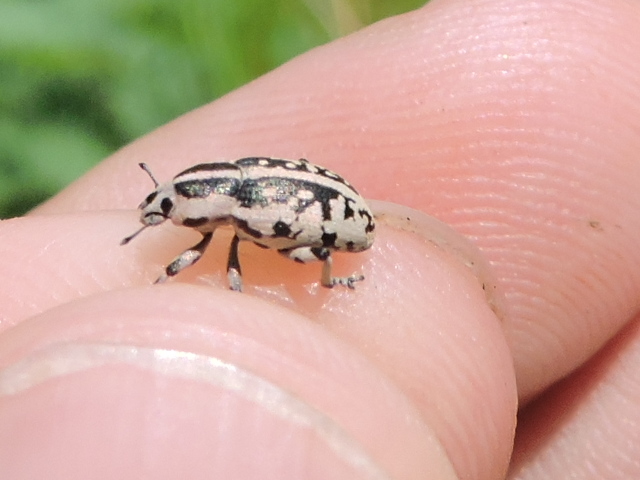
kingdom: Animalia
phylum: Arthropoda
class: Insecta
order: Coleoptera
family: Curculionidae
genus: Eudiagogus
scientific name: Eudiagogus rosenschoeldi
